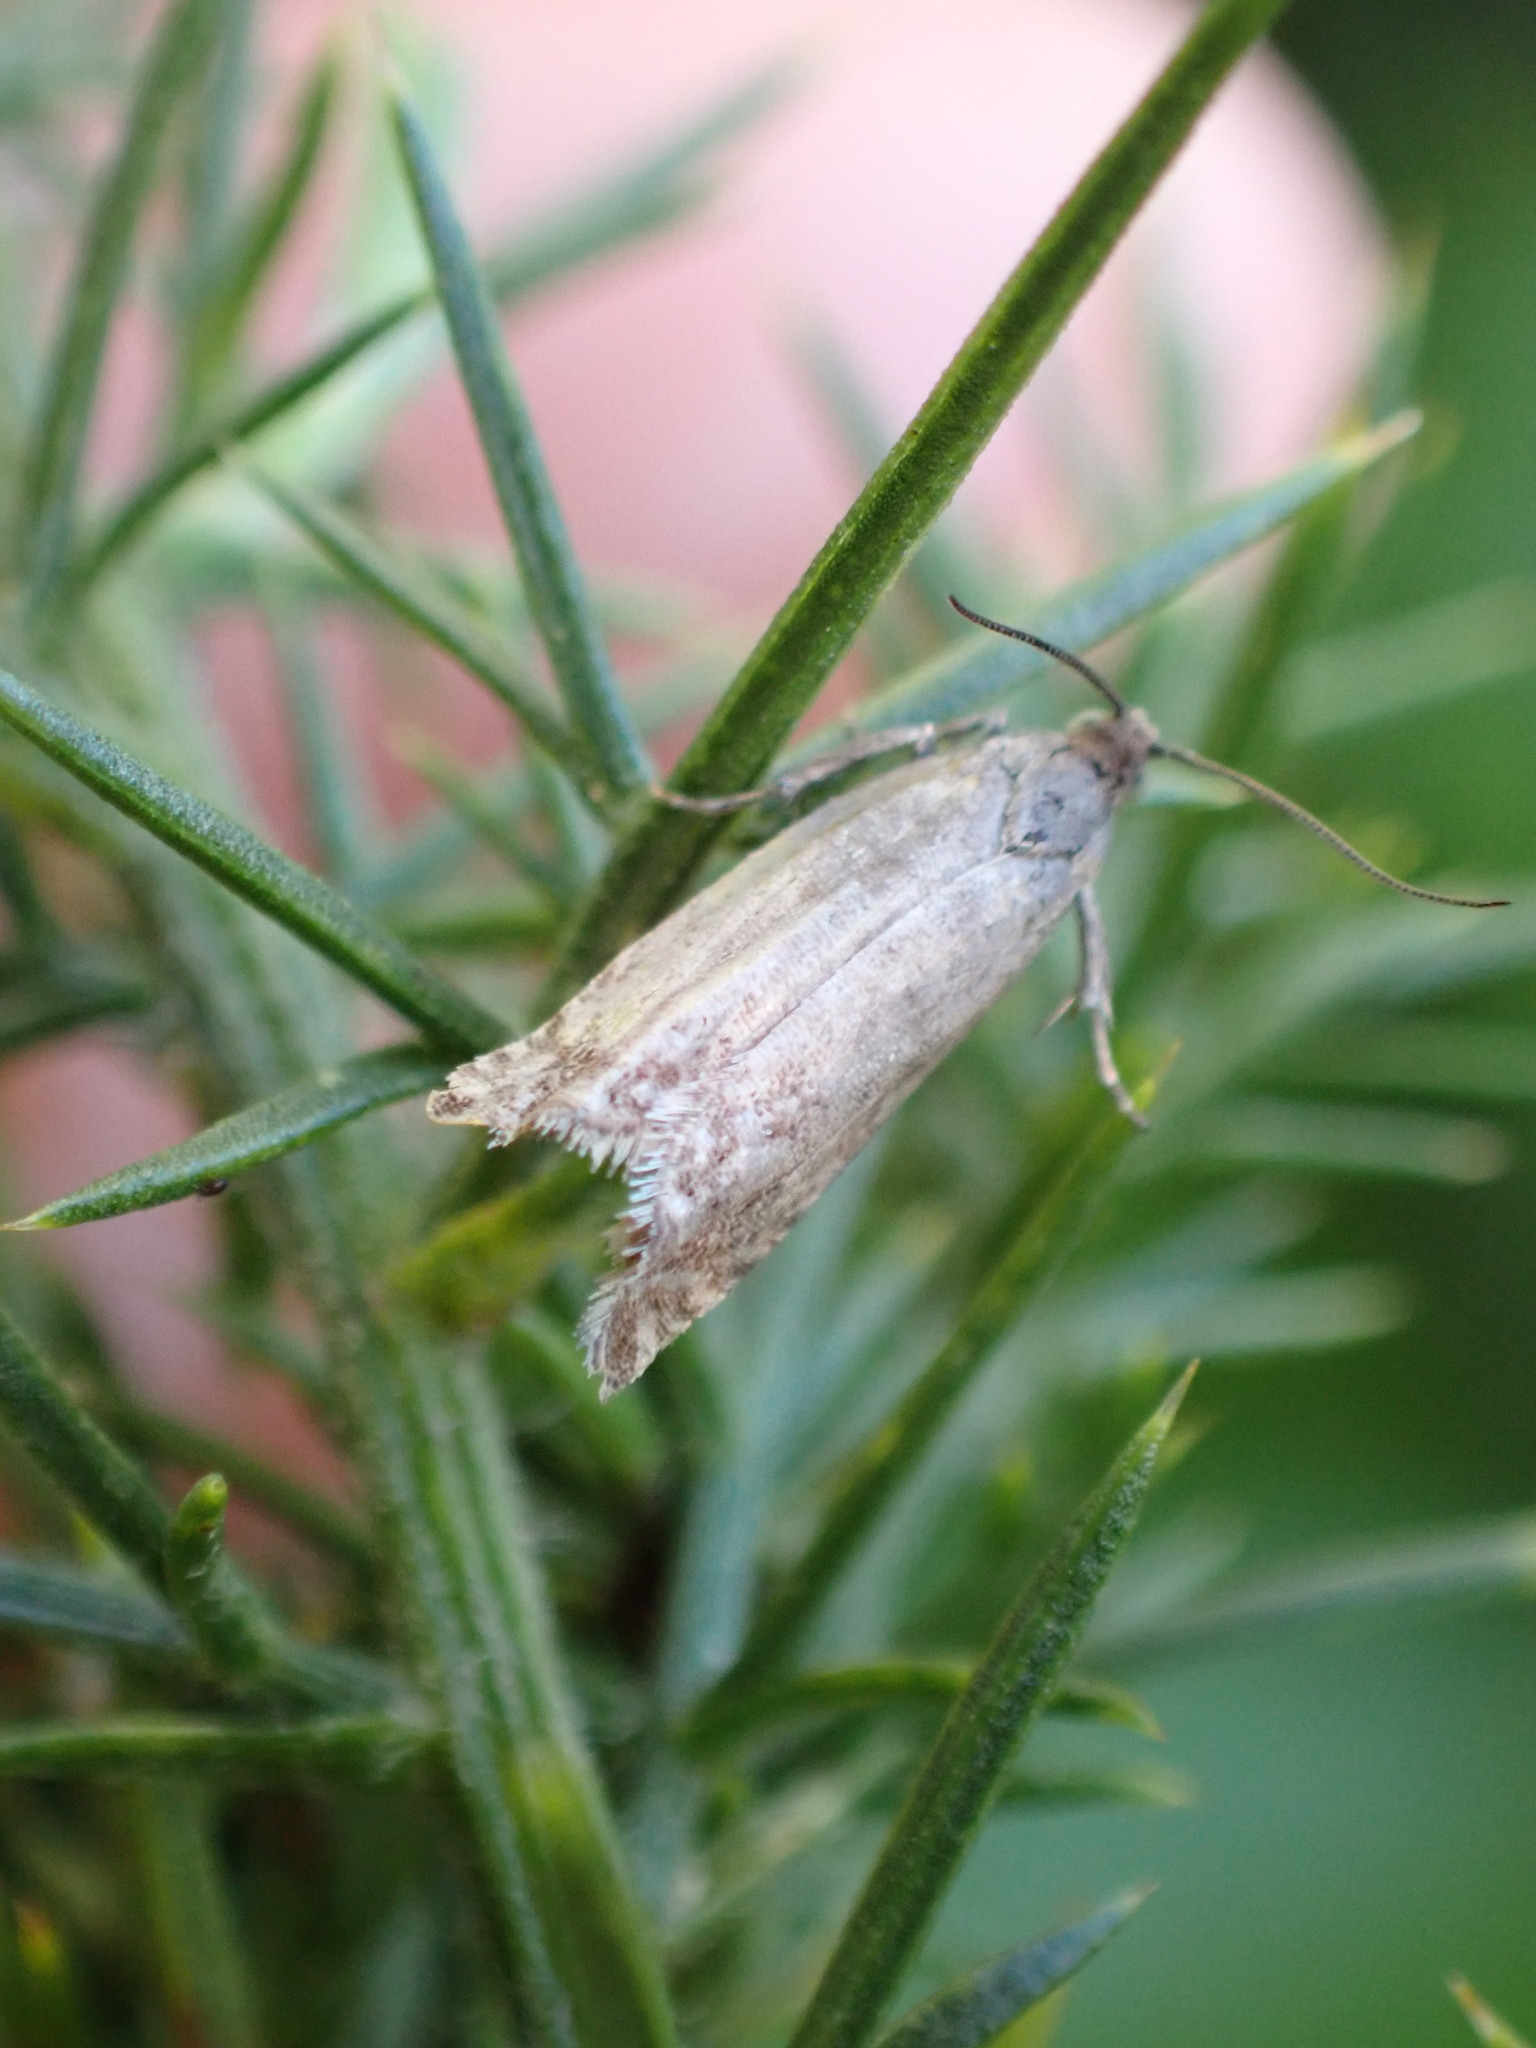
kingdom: Animalia
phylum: Arthropoda
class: Insecta
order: Lepidoptera
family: Tortricidae
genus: Cydia
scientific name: Cydia succedana
